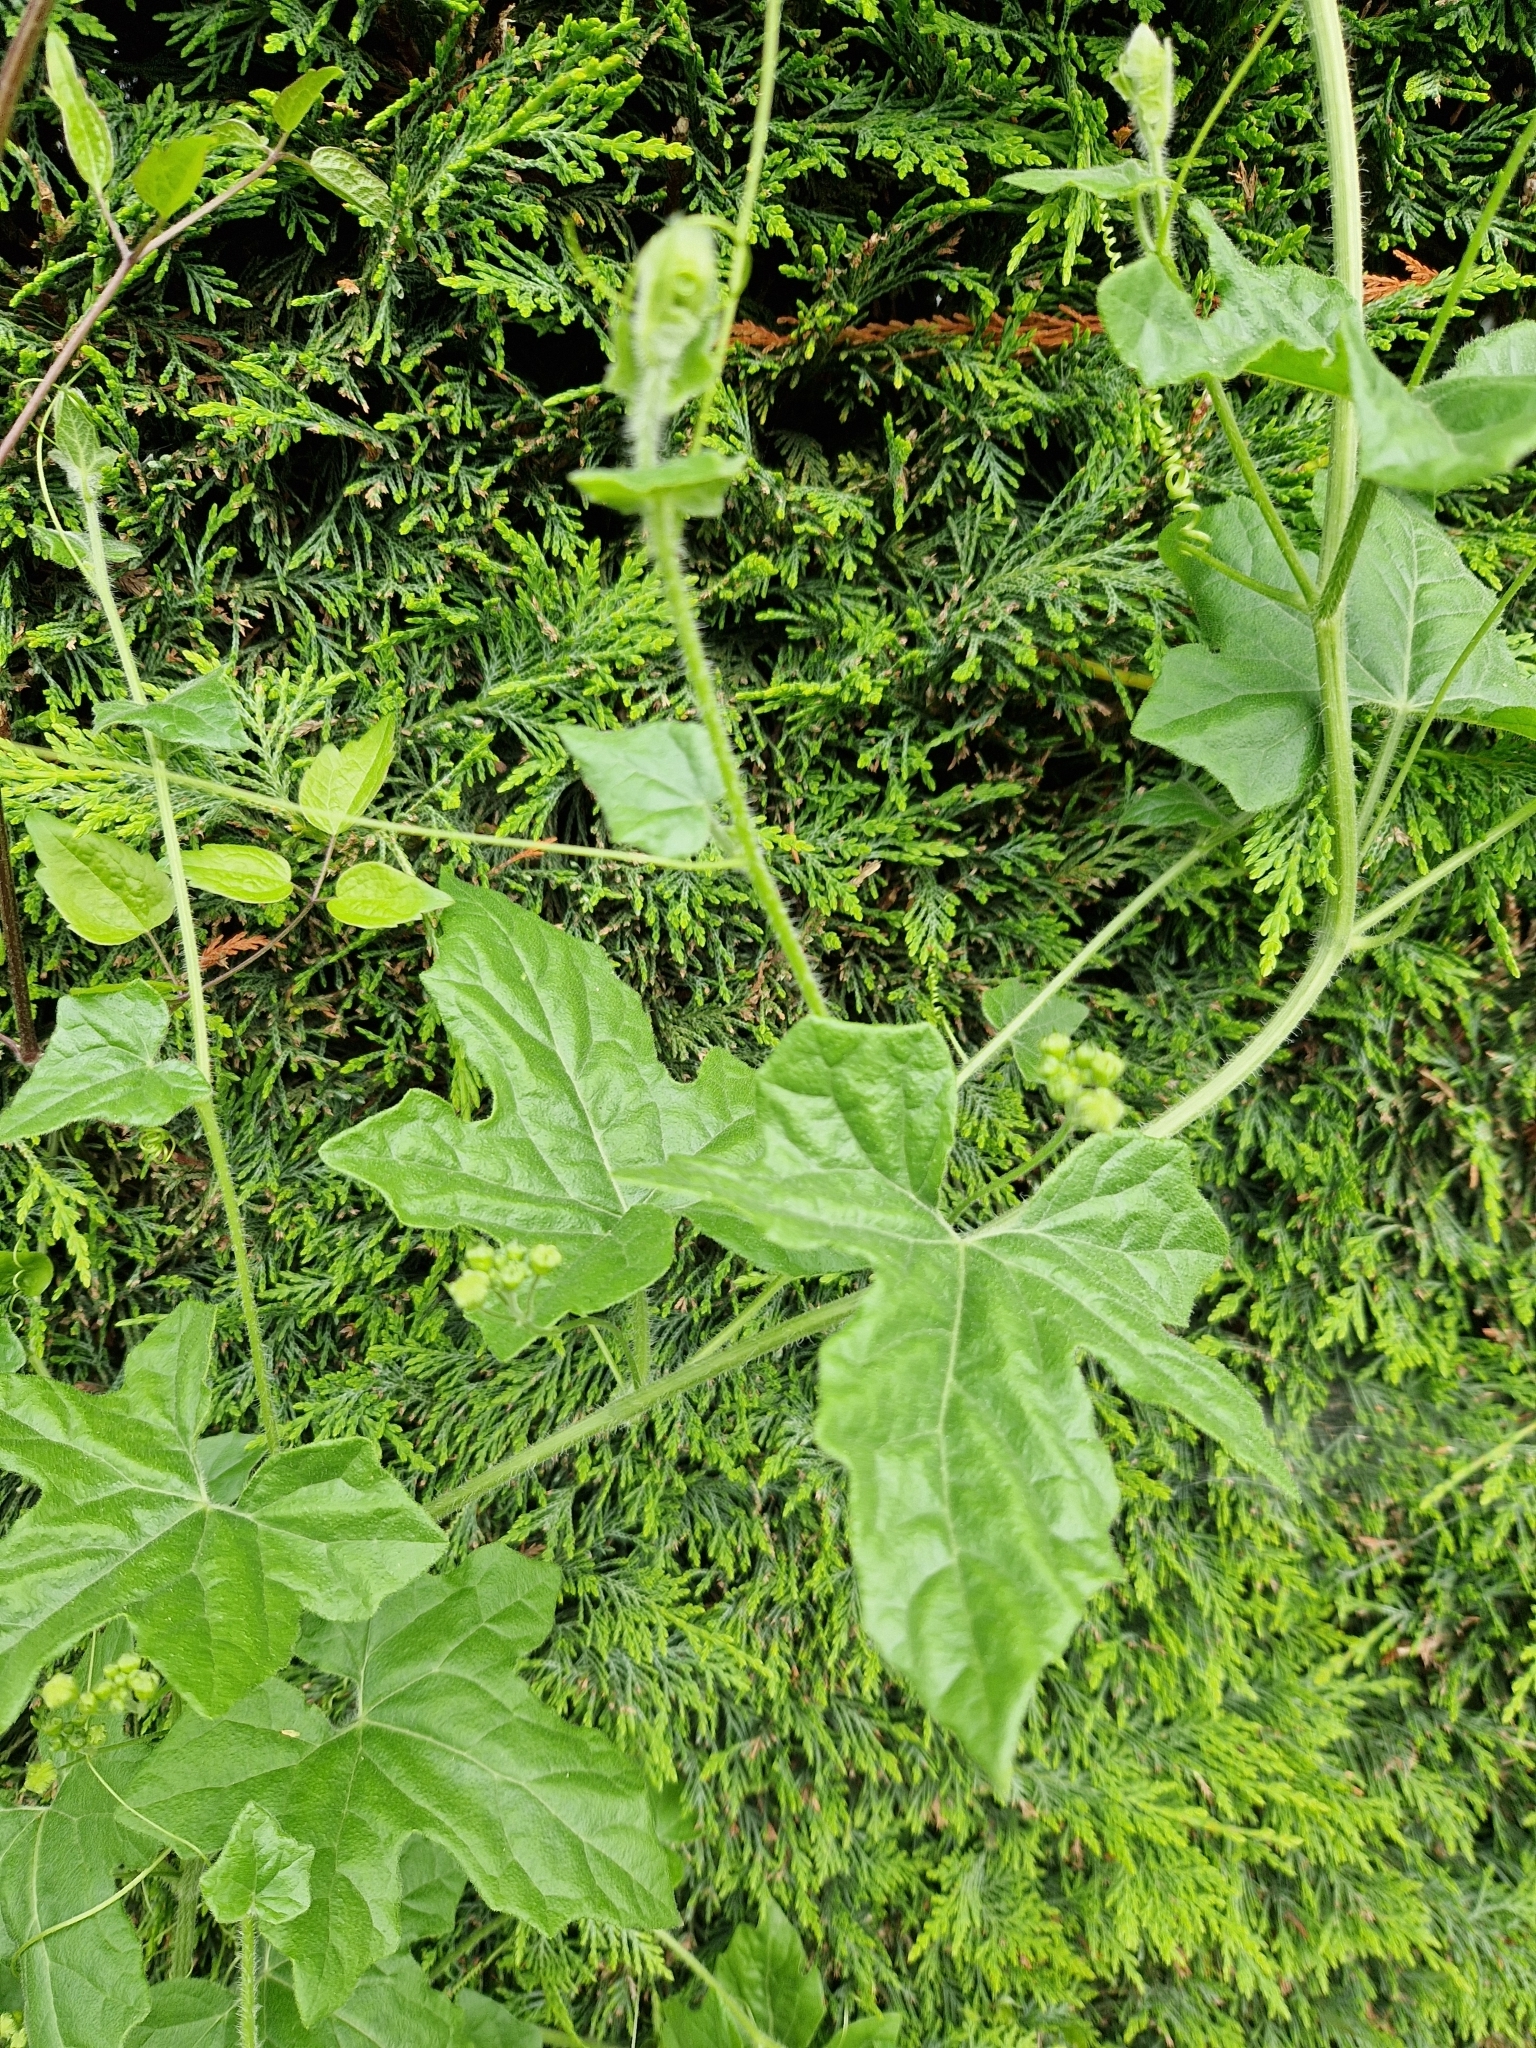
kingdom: Plantae
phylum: Tracheophyta
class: Magnoliopsida
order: Cucurbitales
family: Cucurbitaceae
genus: Bryonia
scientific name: Bryonia dioica
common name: White bryony
